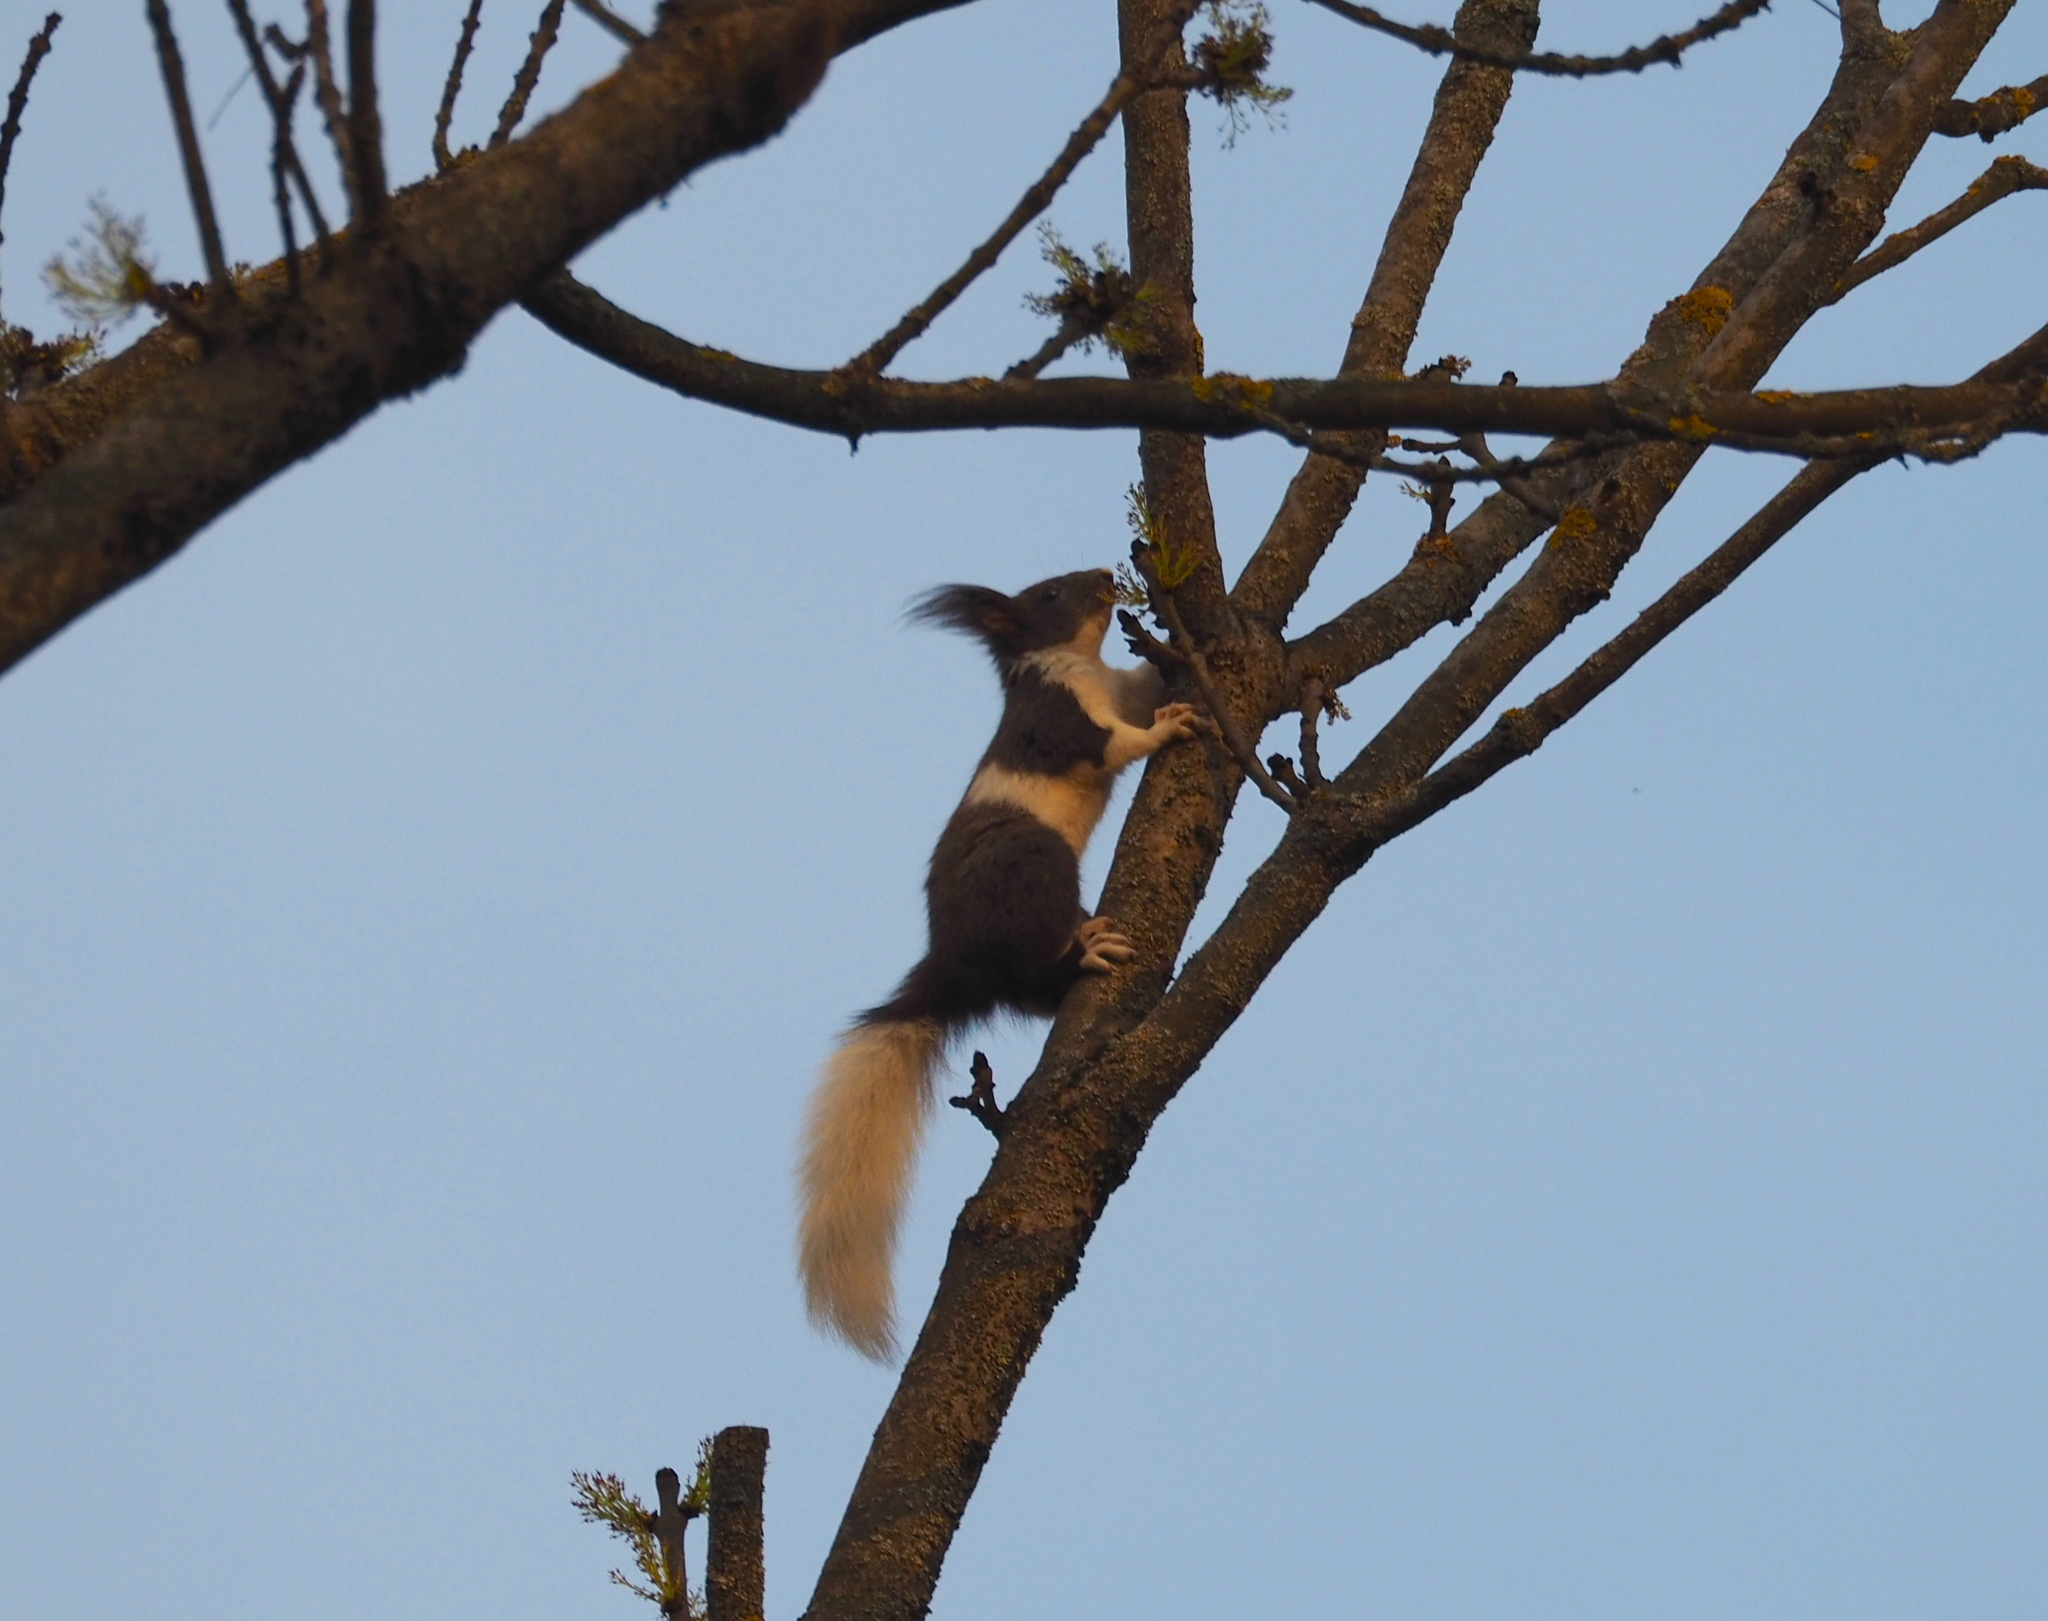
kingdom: Animalia
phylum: Chordata
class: Mammalia
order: Rodentia
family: Sciuridae
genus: Sciurus
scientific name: Sciurus vulgaris
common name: Eurasian red squirrel
